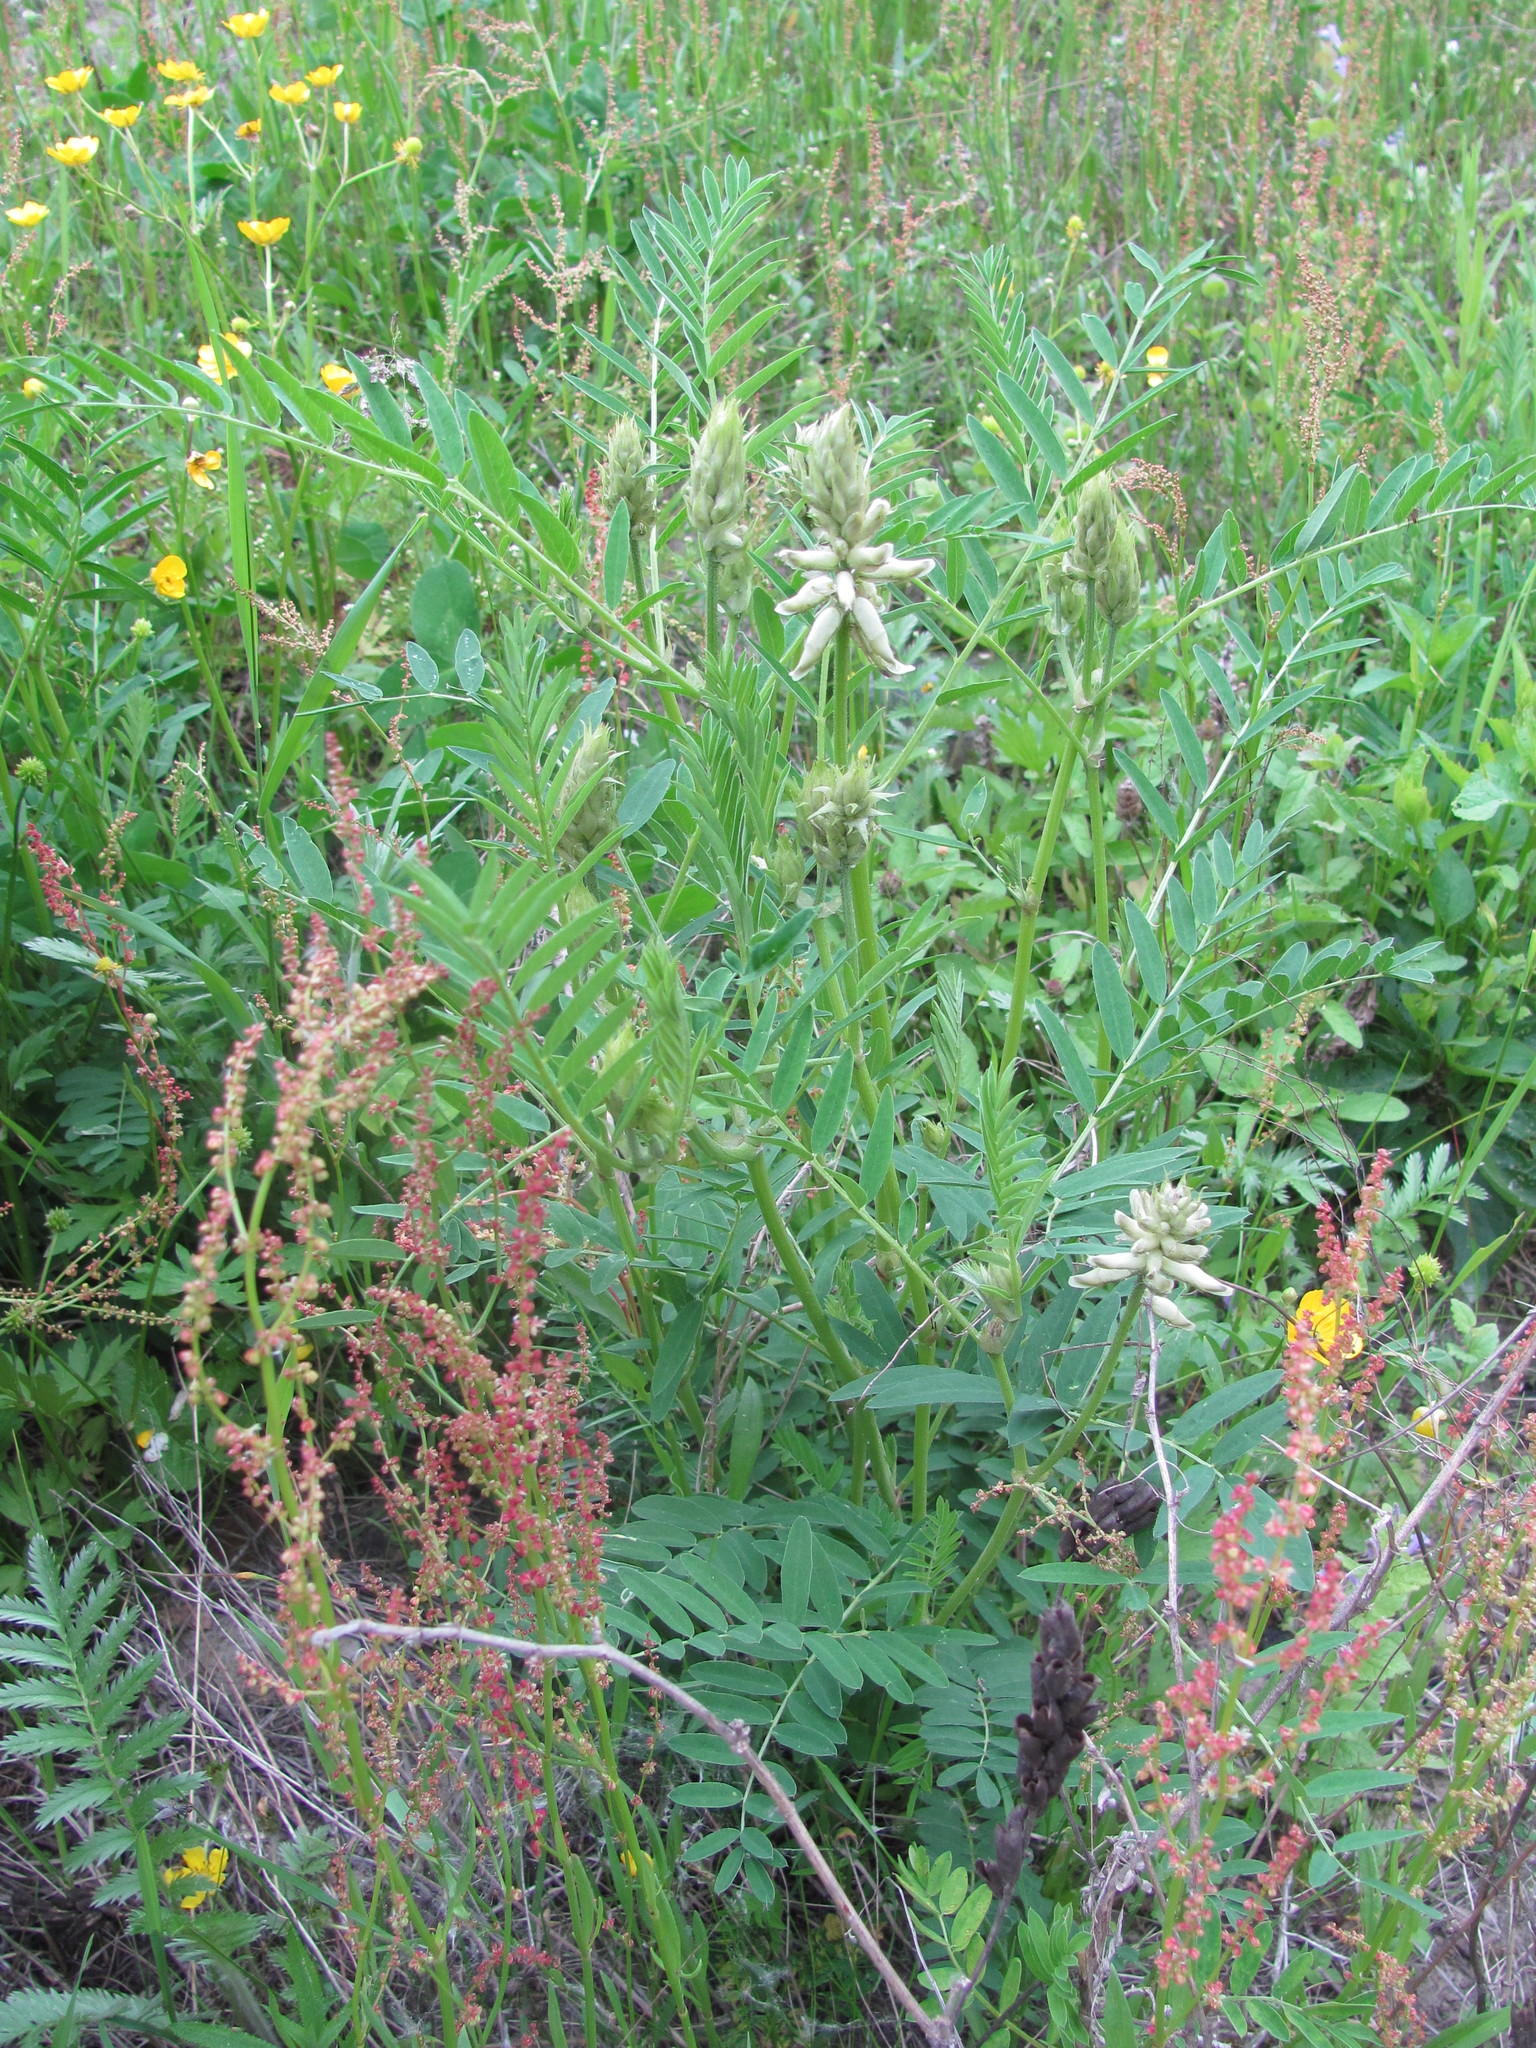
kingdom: Plantae
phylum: Tracheophyta
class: Magnoliopsida
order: Fabales
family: Fabaceae
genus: Astragalus
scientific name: Astragalus uliginosus
